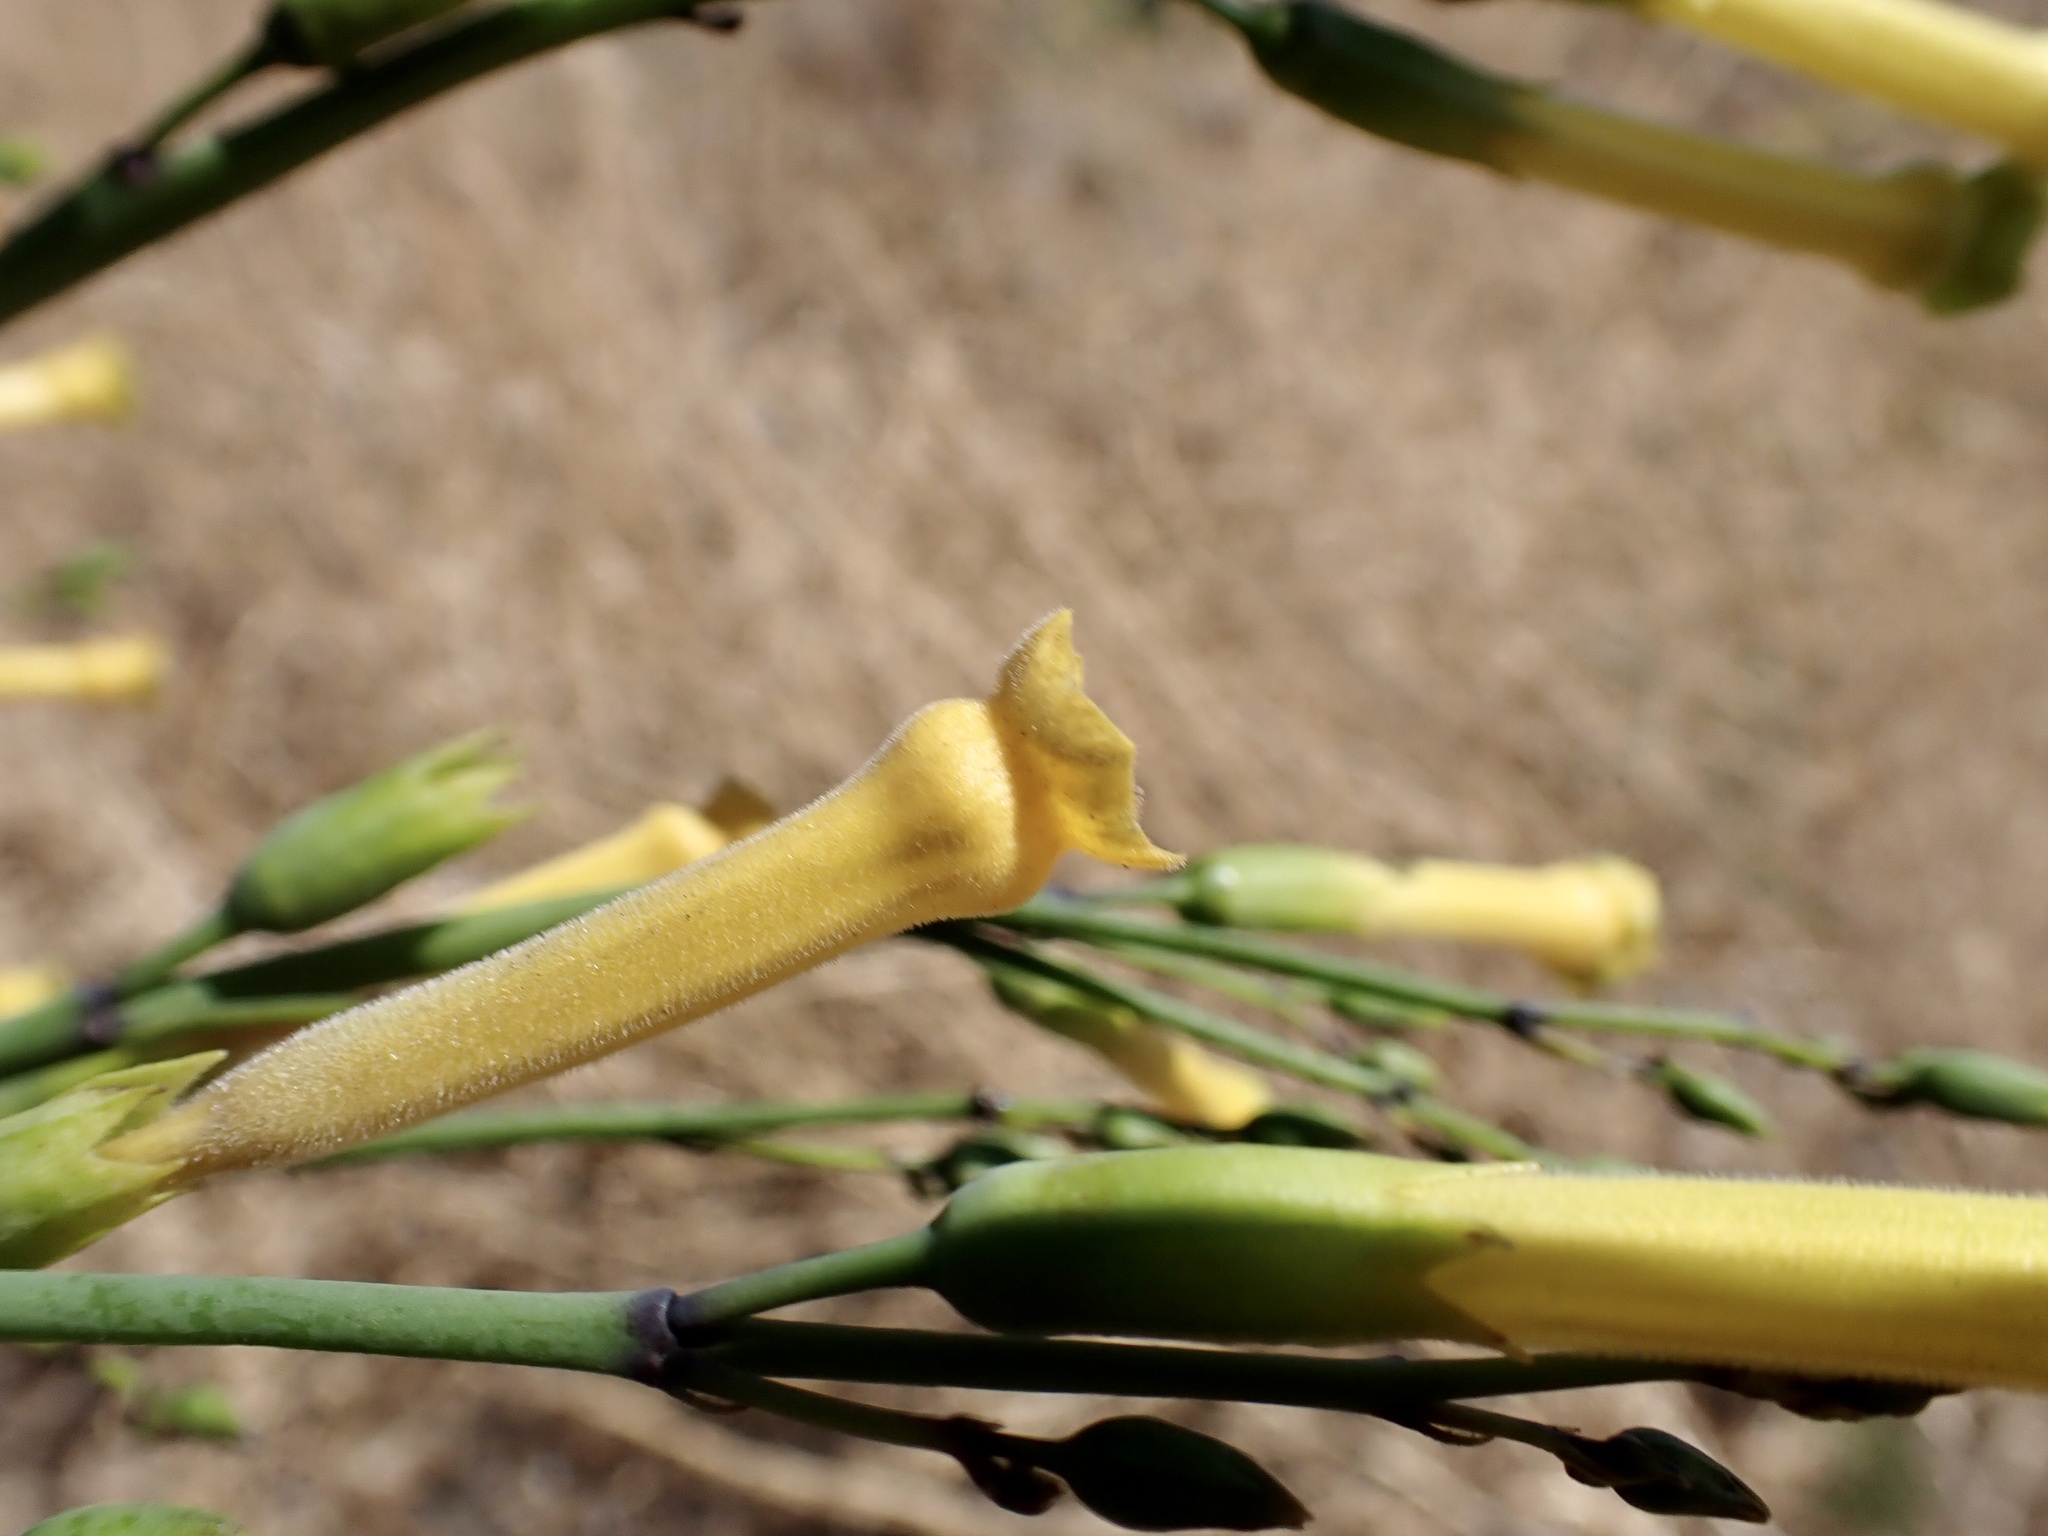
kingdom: Plantae
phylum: Tracheophyta
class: Magnoliopsida
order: Solanales
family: Solanaceae
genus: Nicotiana
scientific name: Nicotiana glauca
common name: Tree tobacco
